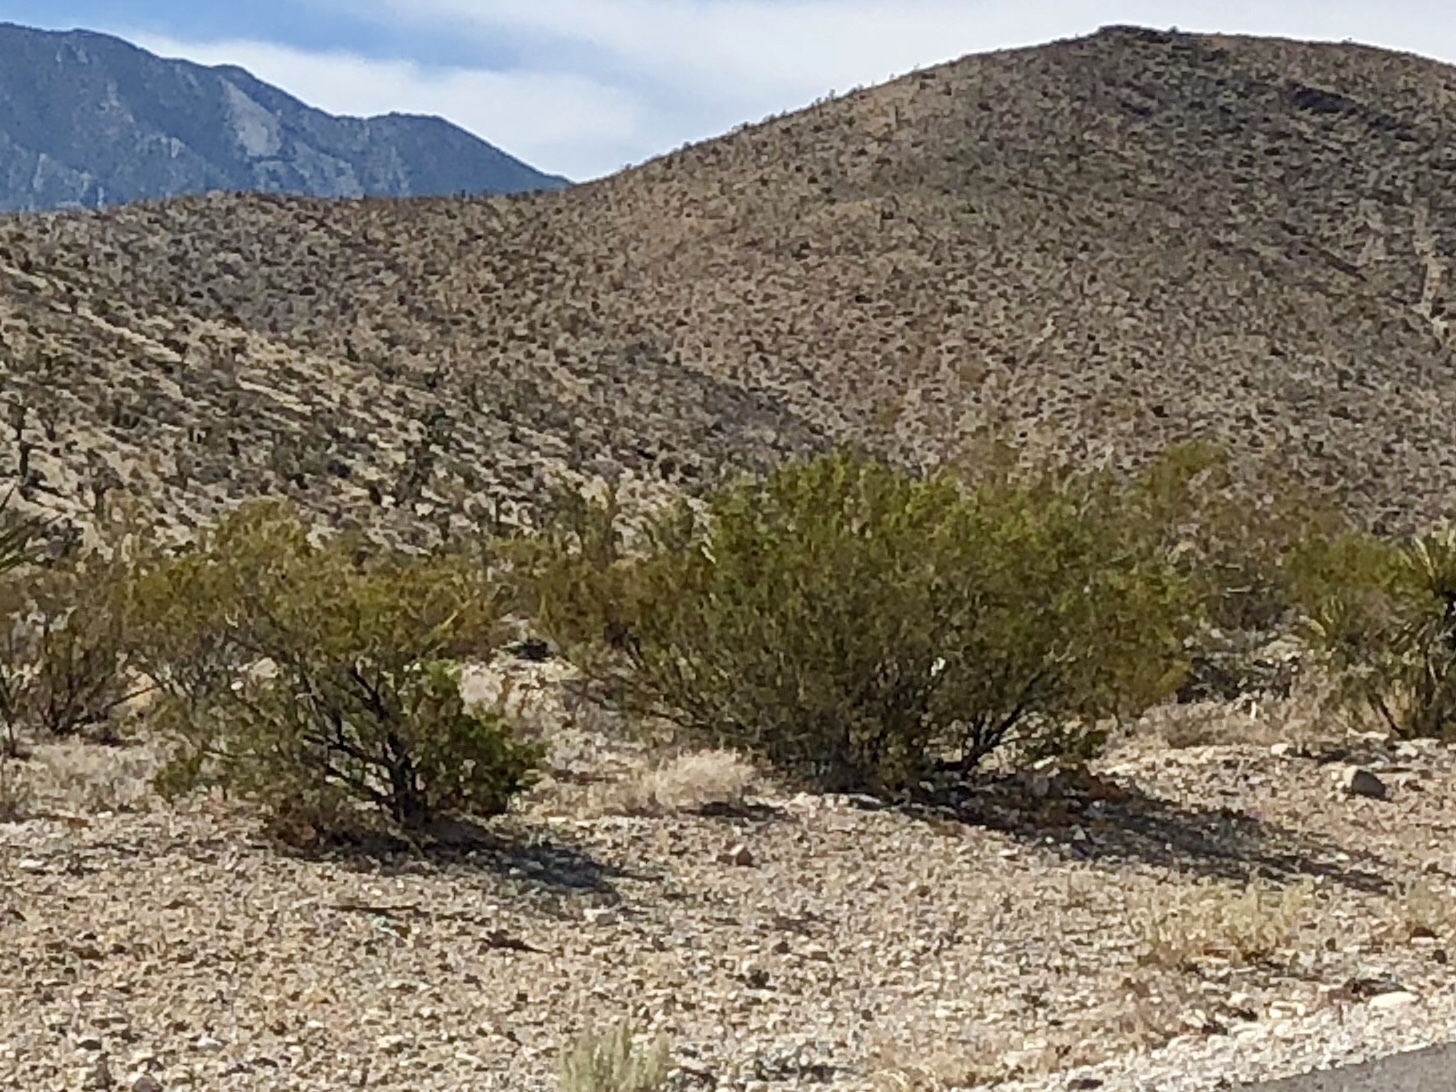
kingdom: Plantae
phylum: Tracheophyta
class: Magnoliopsida
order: Zygophyllales
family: Zygophyllaceae
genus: Larrea
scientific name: Larrea tridentata
